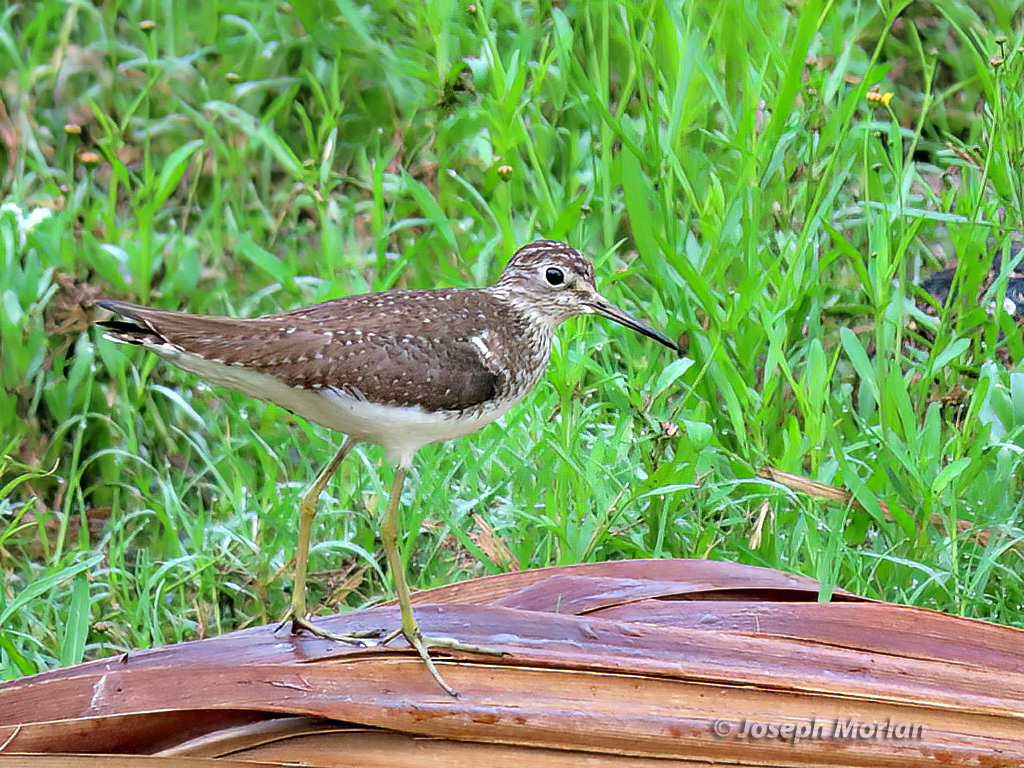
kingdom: Animalia
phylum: Chordata
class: Aves
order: Charadriiformes
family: Scolopacidae
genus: Tringa
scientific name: Tringa solitaria
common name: Solitary sandpiper
